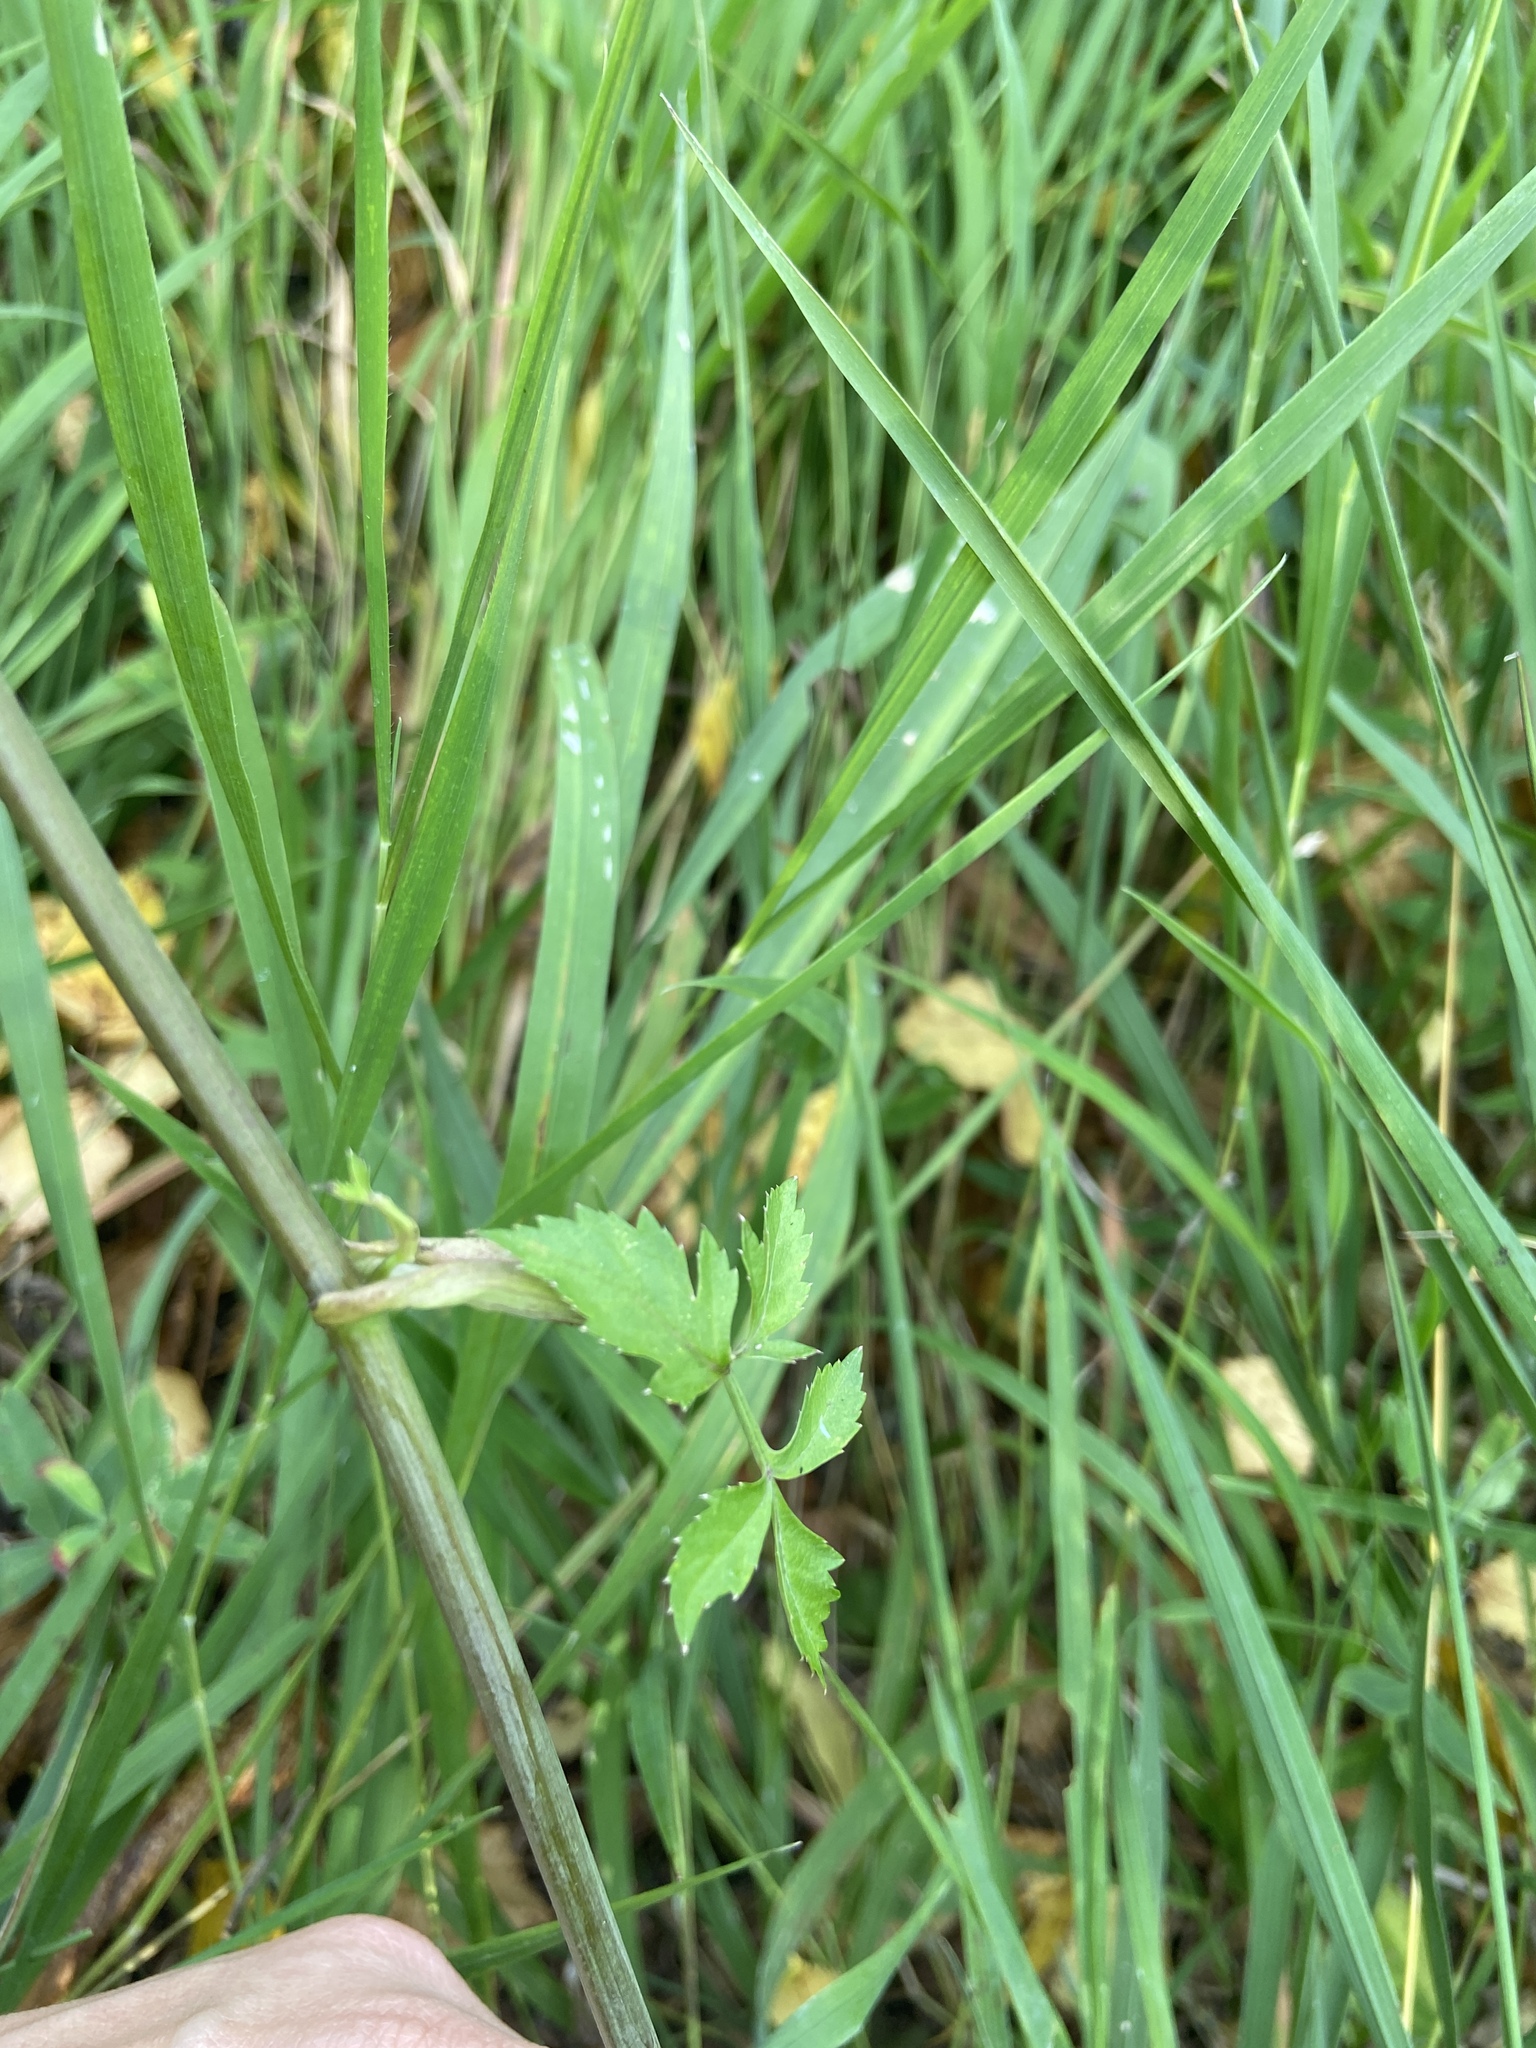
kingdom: Plantae
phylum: Tracheophyta
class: Magnoliopsida
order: Apiales
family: Apiaceae
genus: Angelica
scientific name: Angelica sylvestris
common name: Wild angelica
